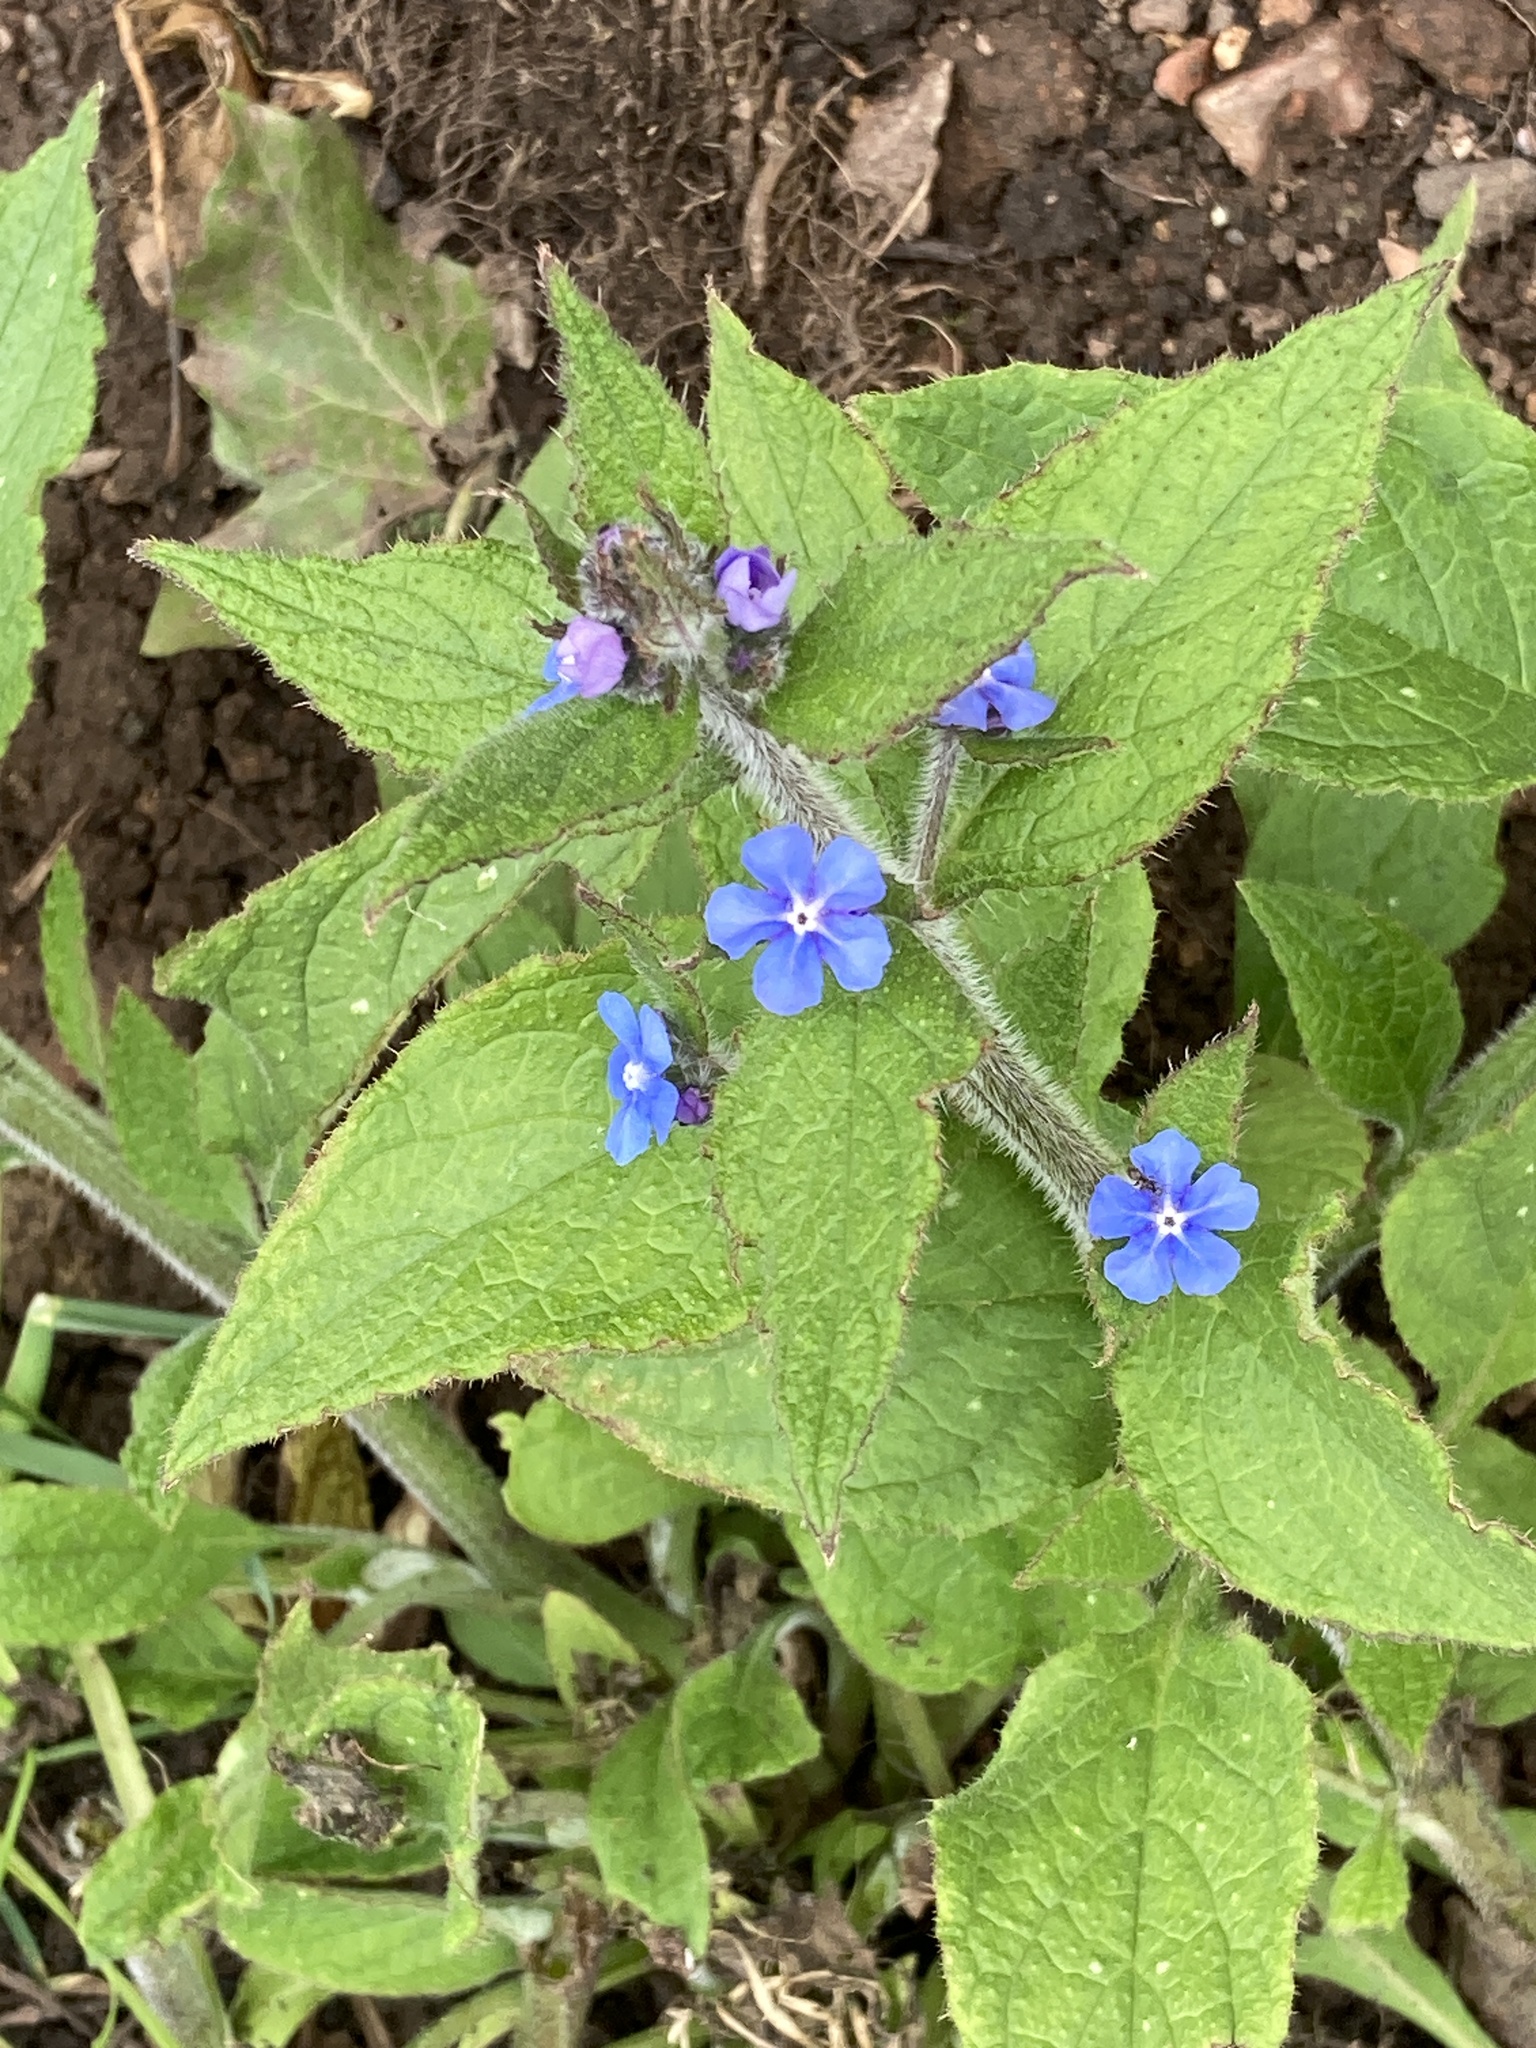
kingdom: Plantae
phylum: Tracheophyta
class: Magnoliopsida
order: Boraginales
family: Boraginaceae
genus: Pentaglottis
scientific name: Pentaglottis sempervirens
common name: Green alkanet
